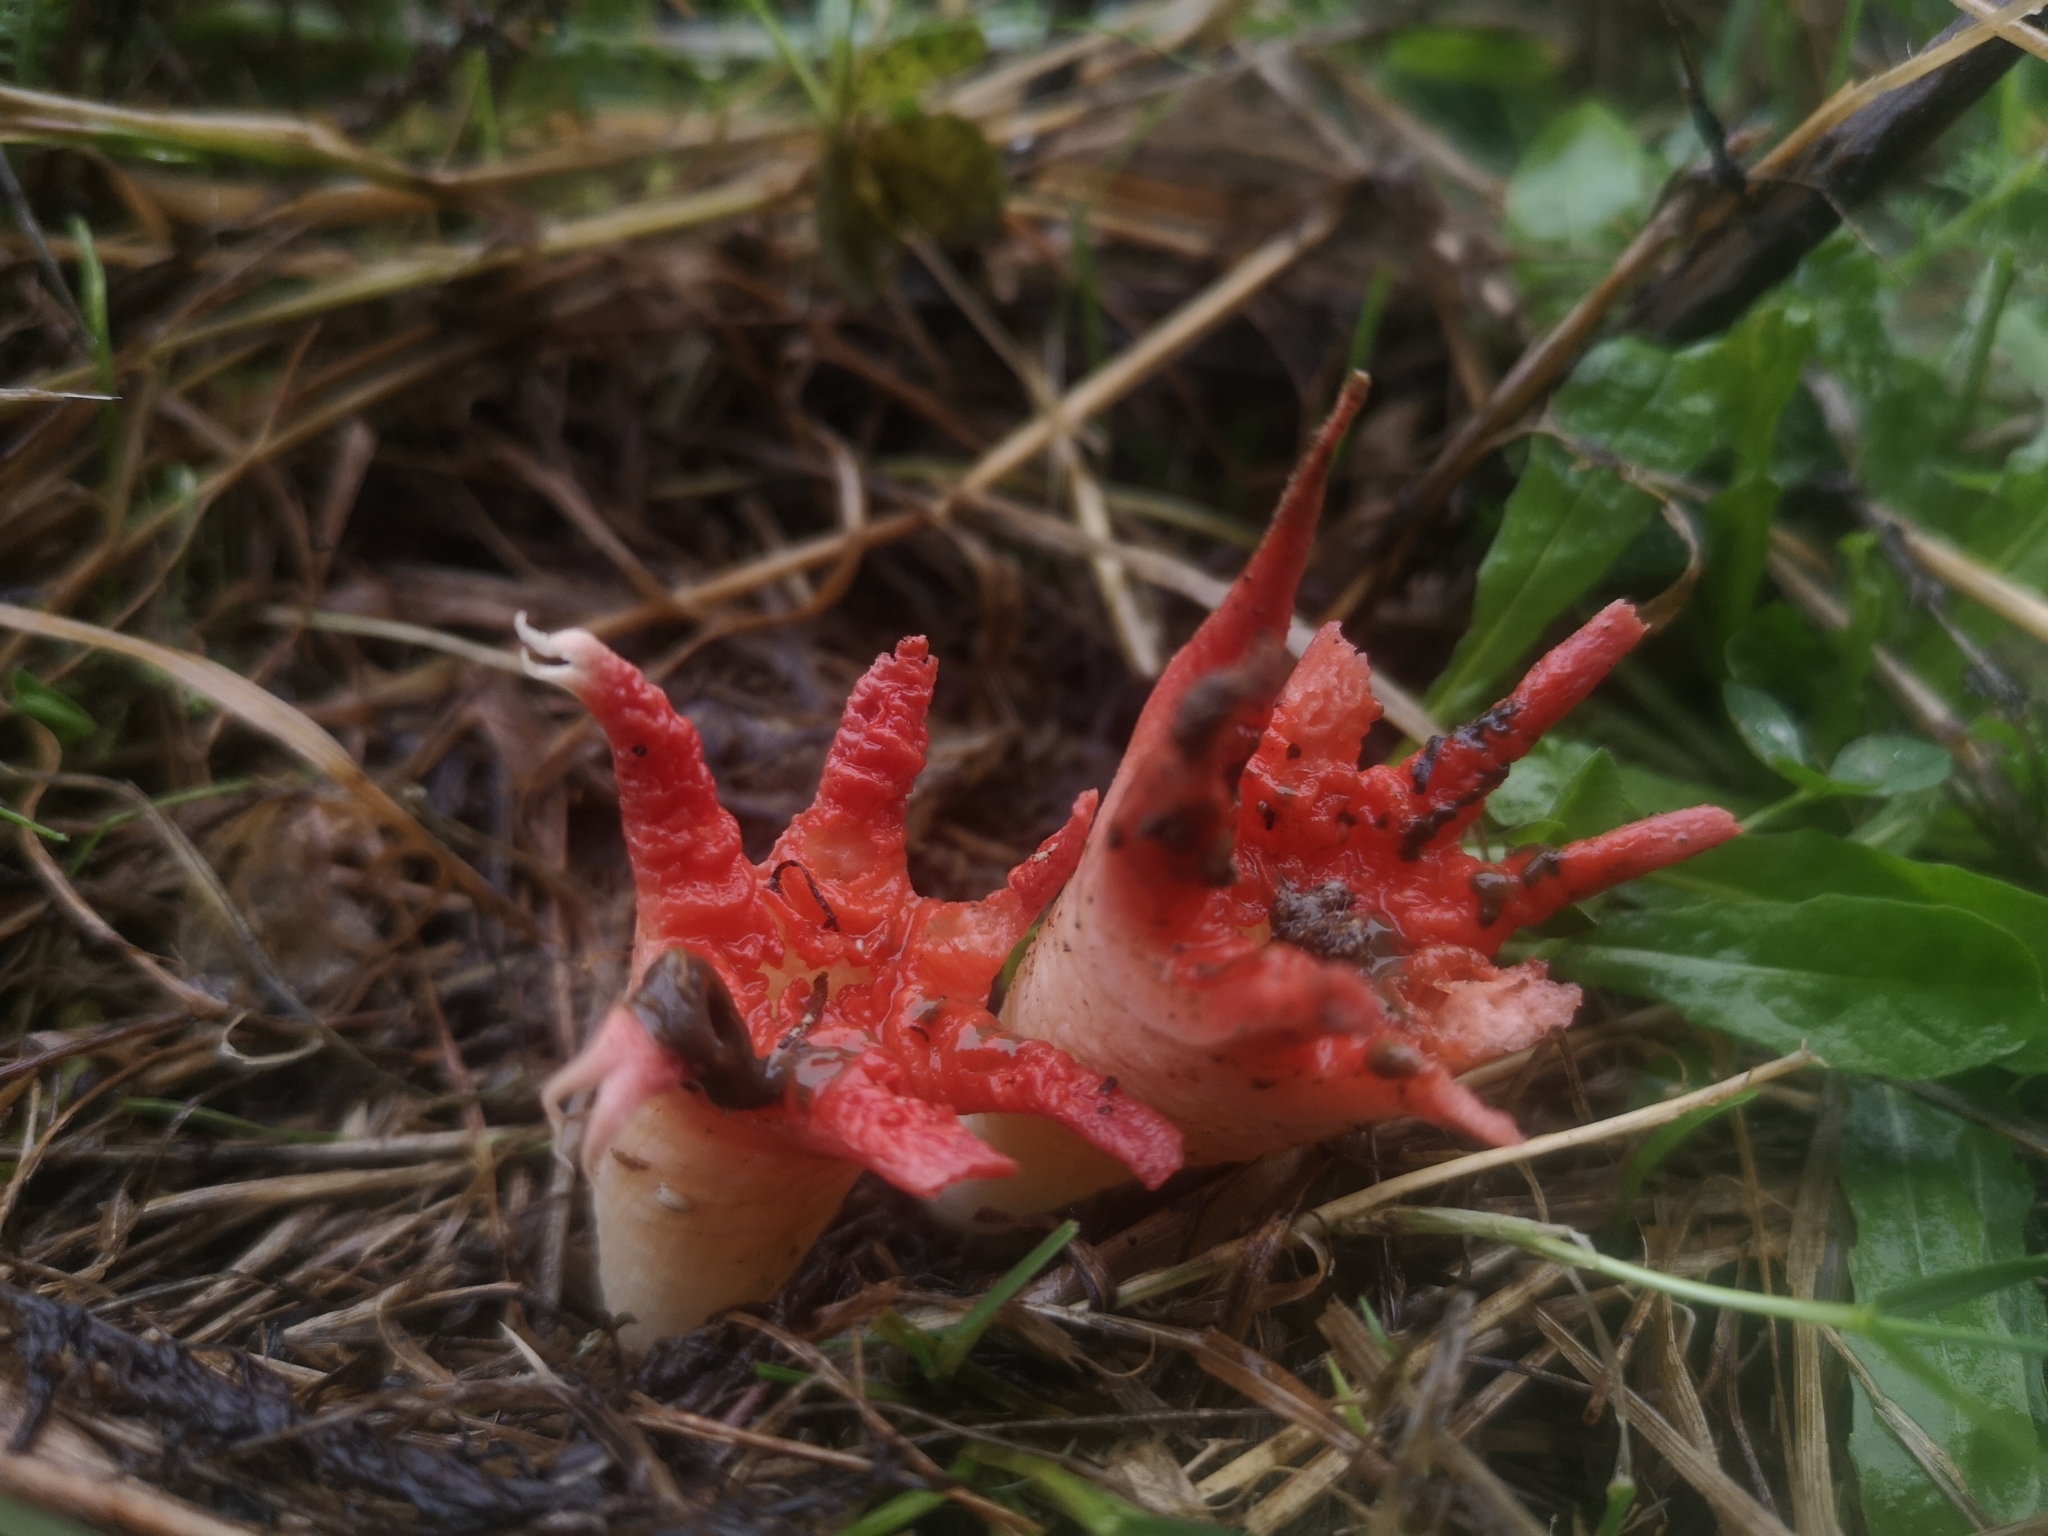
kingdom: Fungi
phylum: Basidiomycota
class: Agaricomycetes
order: Phallales
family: Phallaceae
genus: Aseroe
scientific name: Aseroe rubra
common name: Starfish fungus
